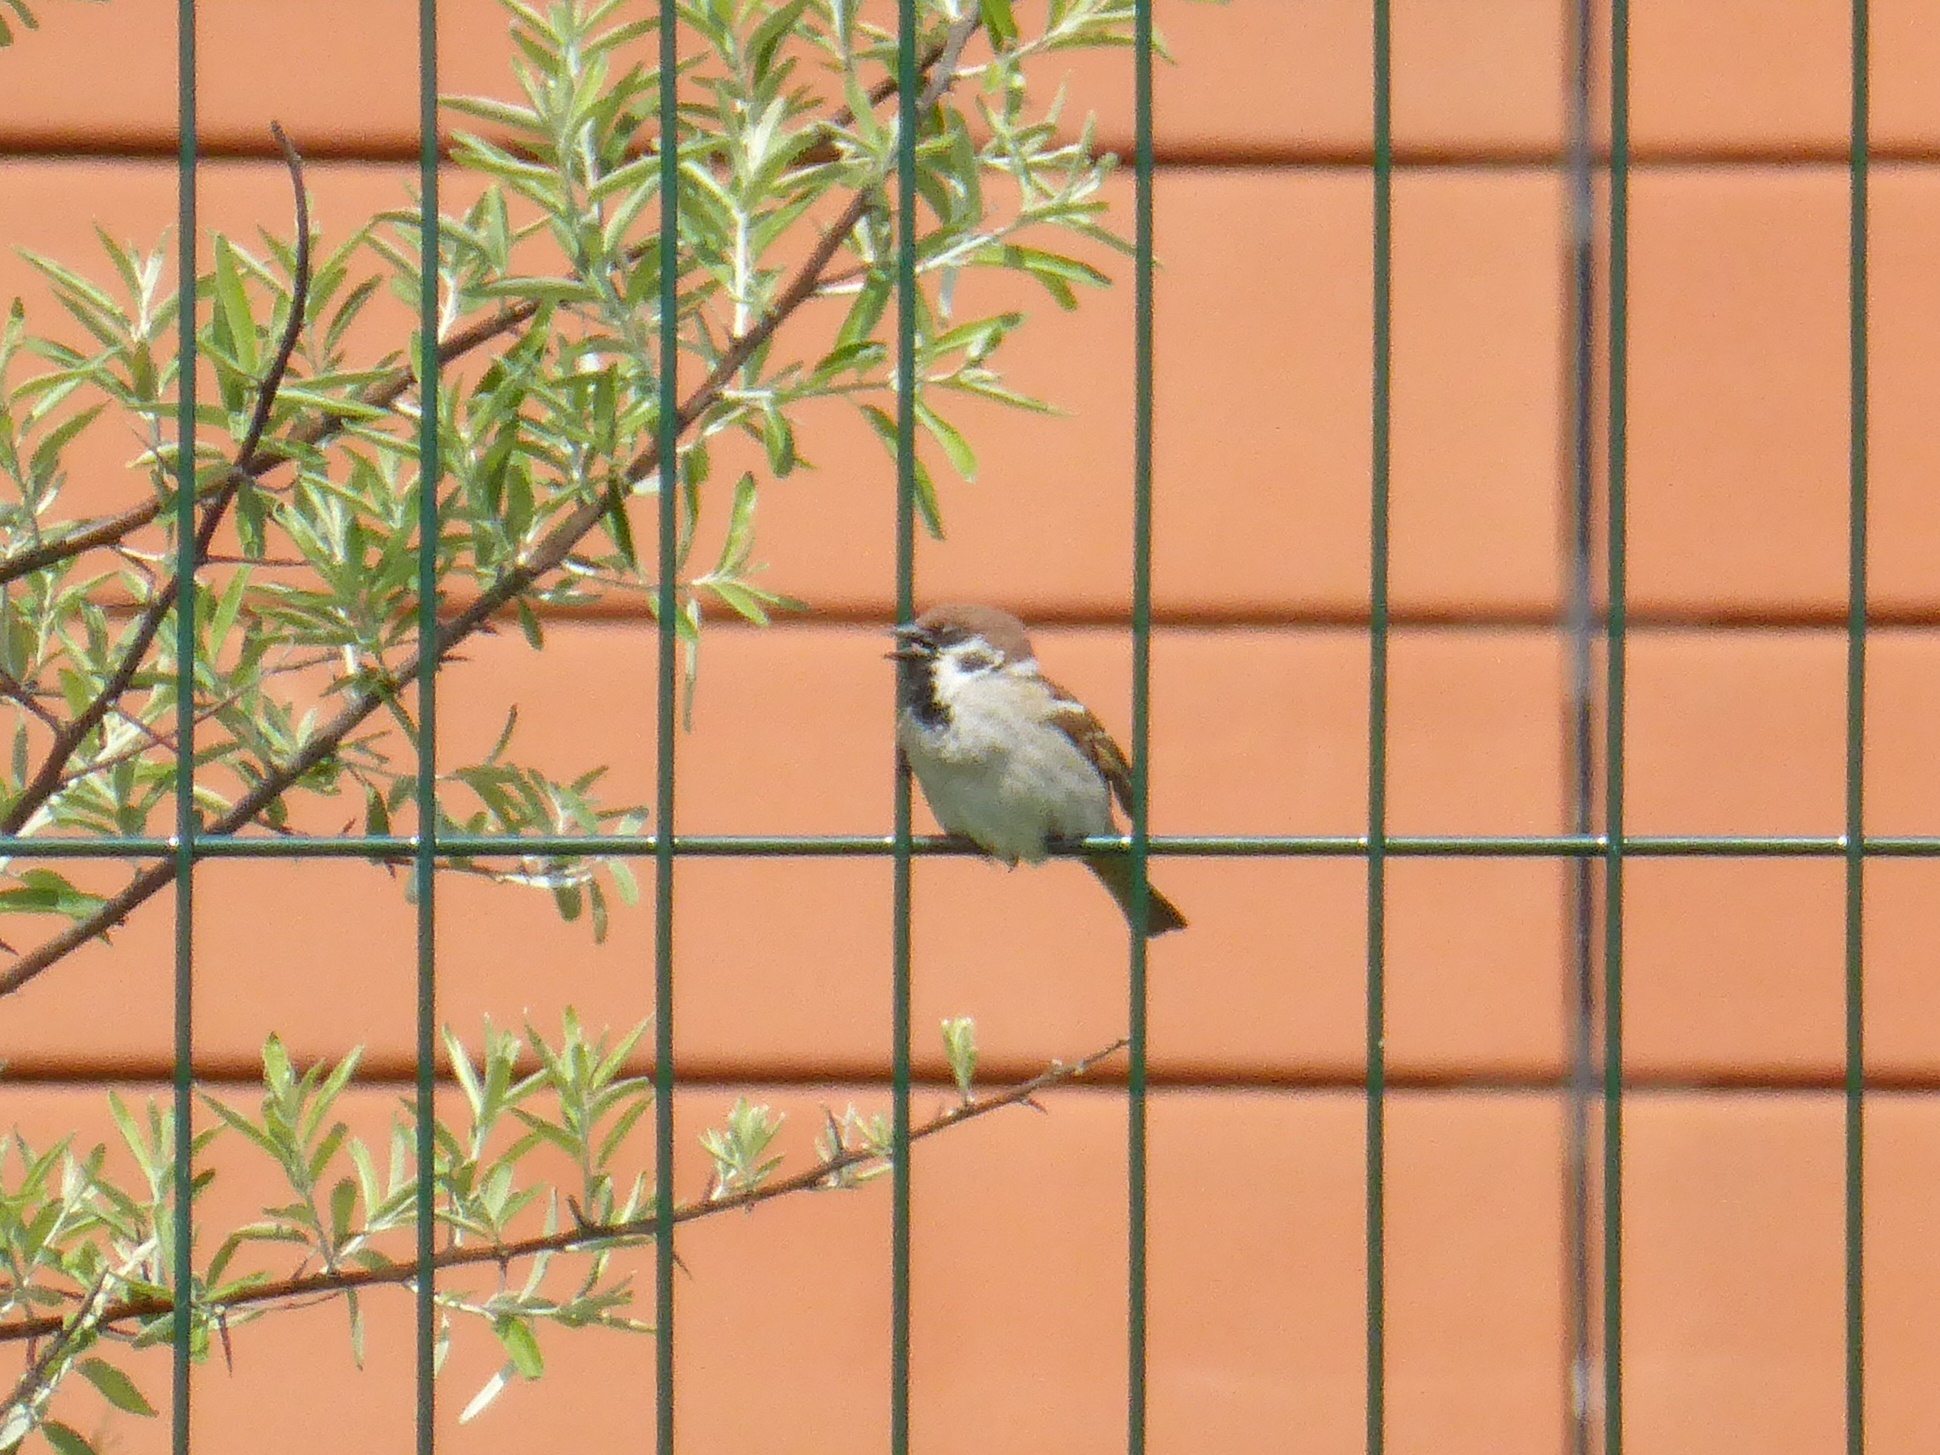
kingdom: Animalia
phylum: Chordata
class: Aves
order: Passeriformes
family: Passeridae
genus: Passer
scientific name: Passer montanus
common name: Eurasian tree sparrow
